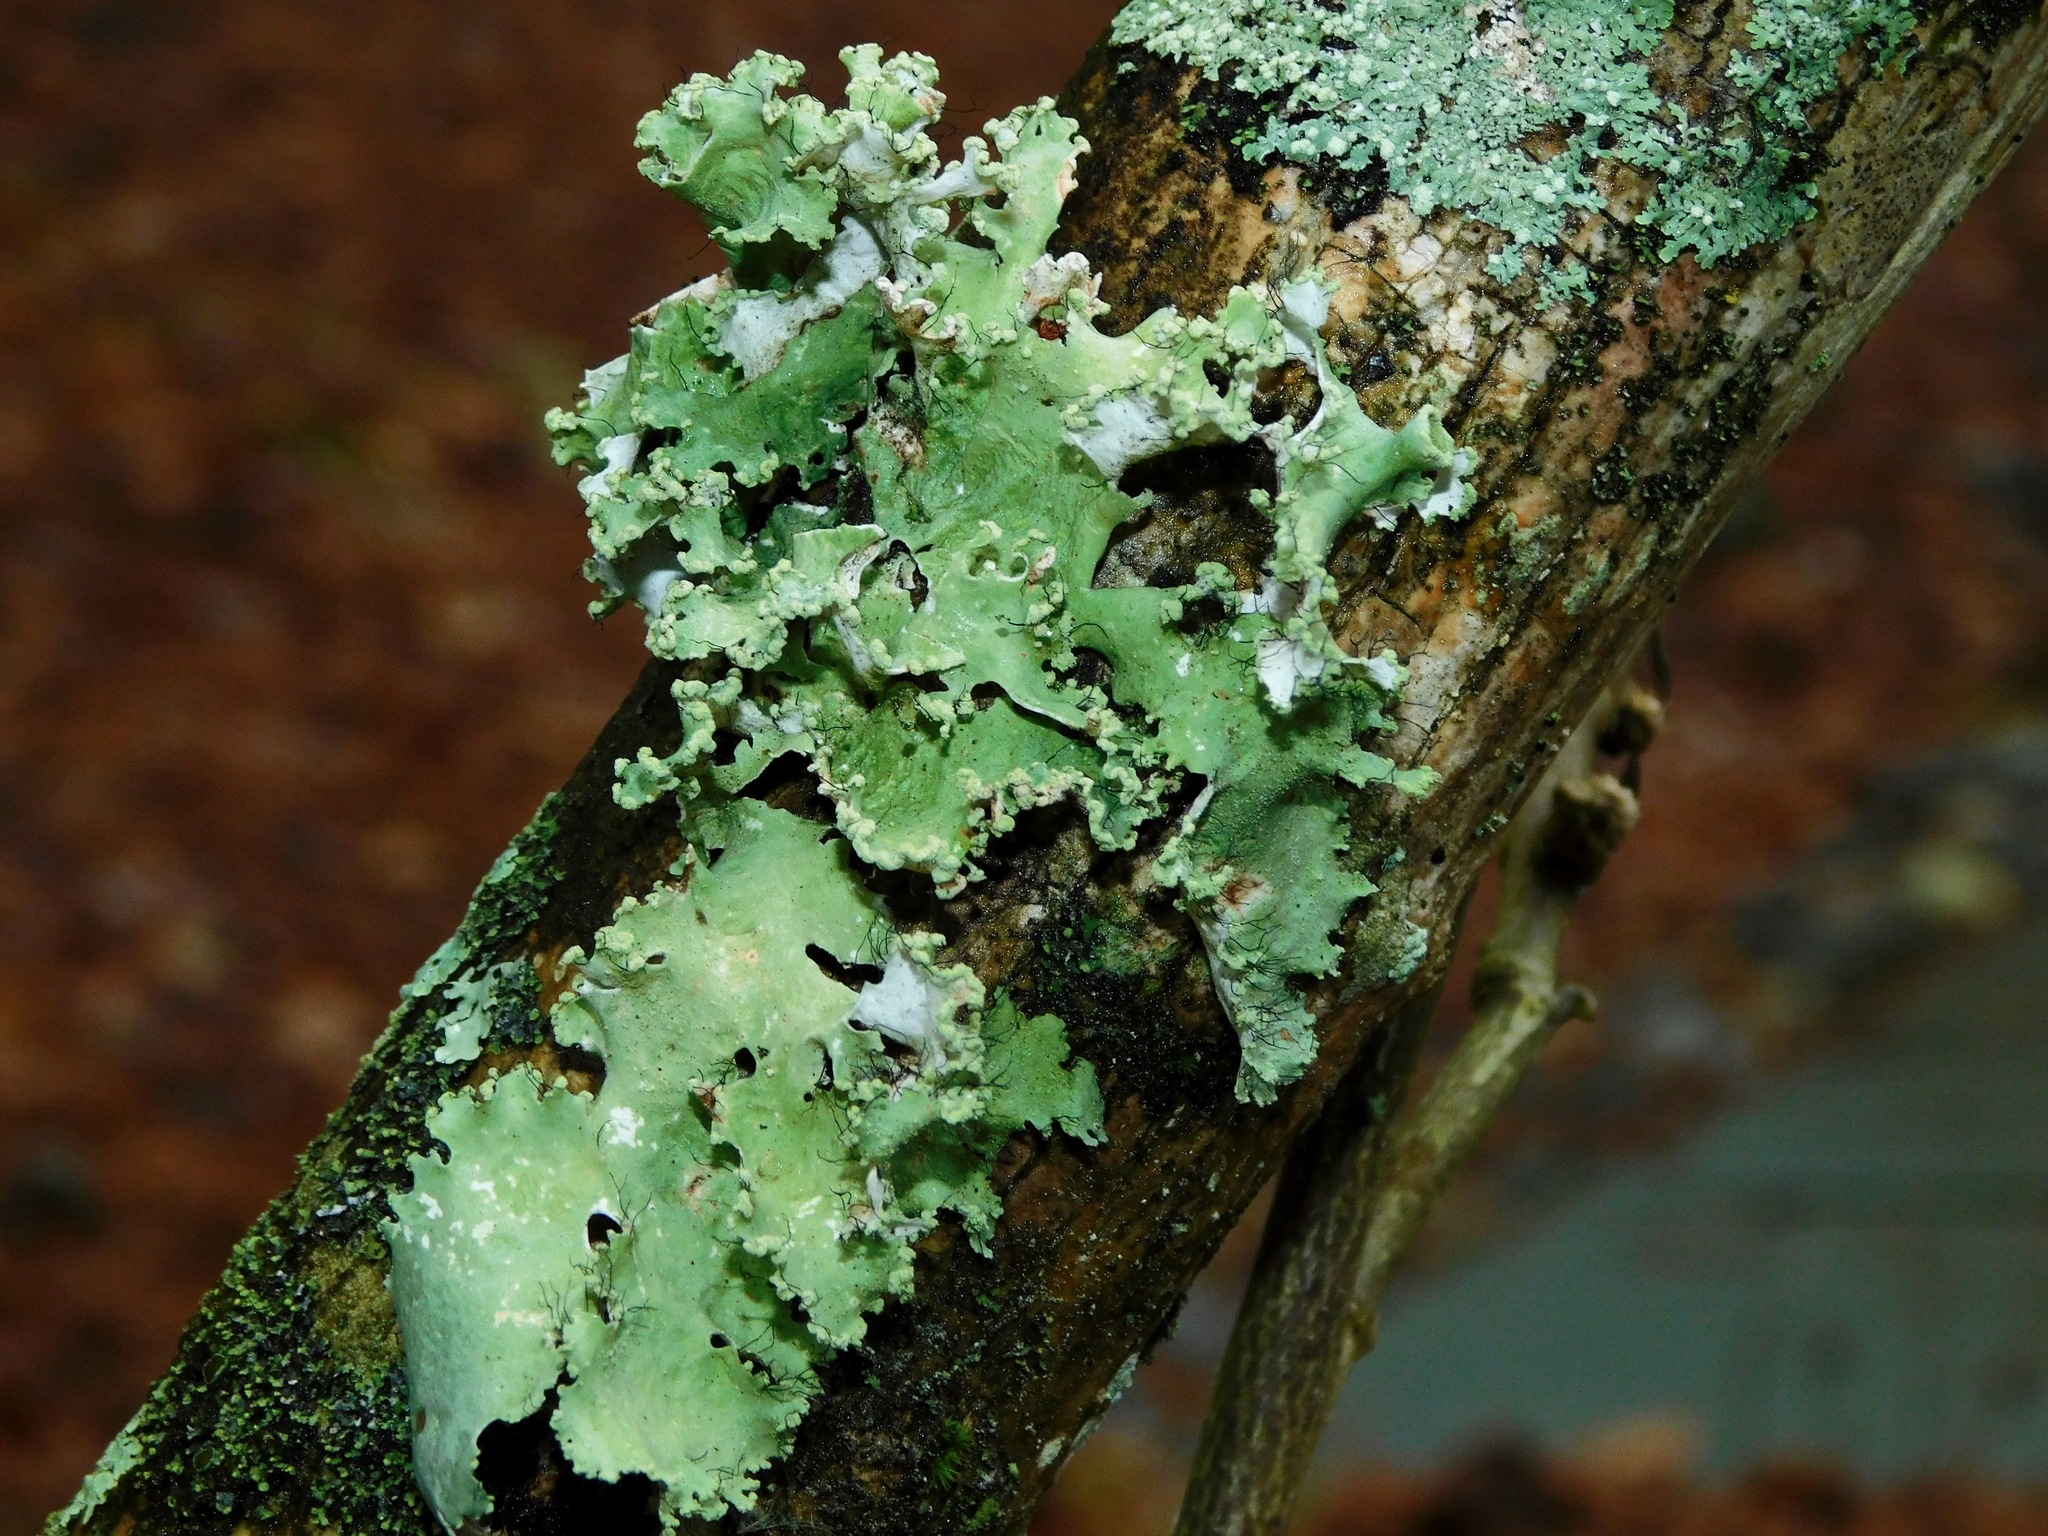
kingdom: Fungi
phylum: Ascomycota
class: Lecanoromycetes
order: Lecanorales
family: Parmeliaceae
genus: Parmotrema
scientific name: Parmotrema hypotropum
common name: Powdered ruffle lichen
